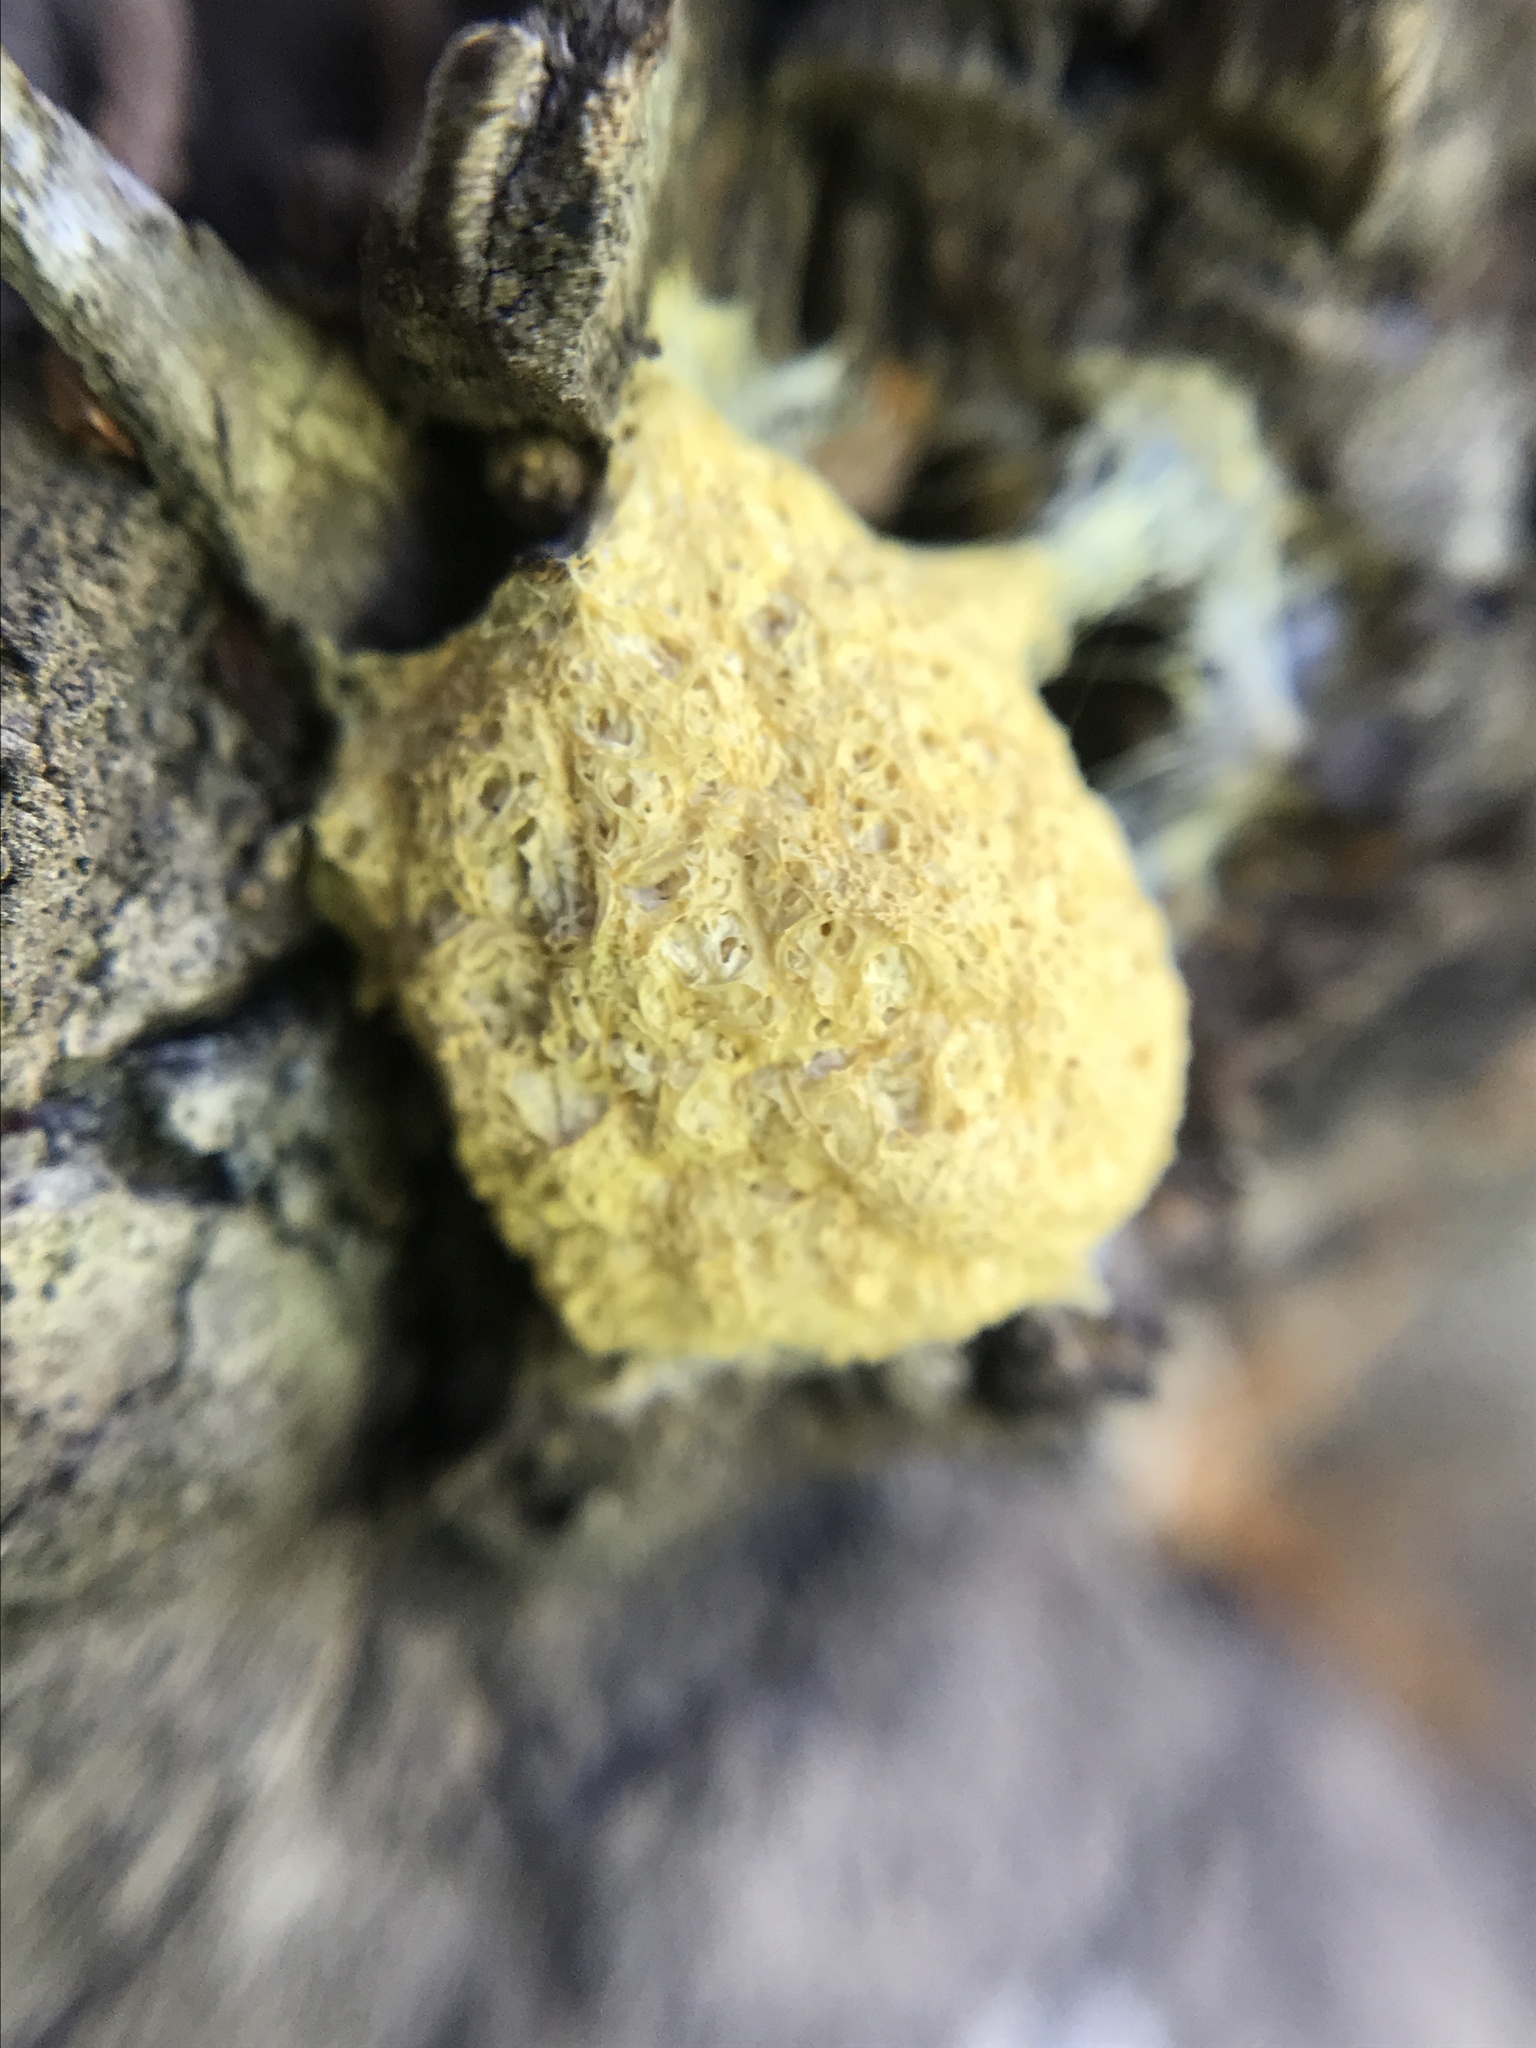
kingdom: Protozoa
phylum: Mycetozoa
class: Myxomycetes
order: Physarales
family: Physaraceae
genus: Fuligo
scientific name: Fuligo septica
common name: Dog vomit slime mold
